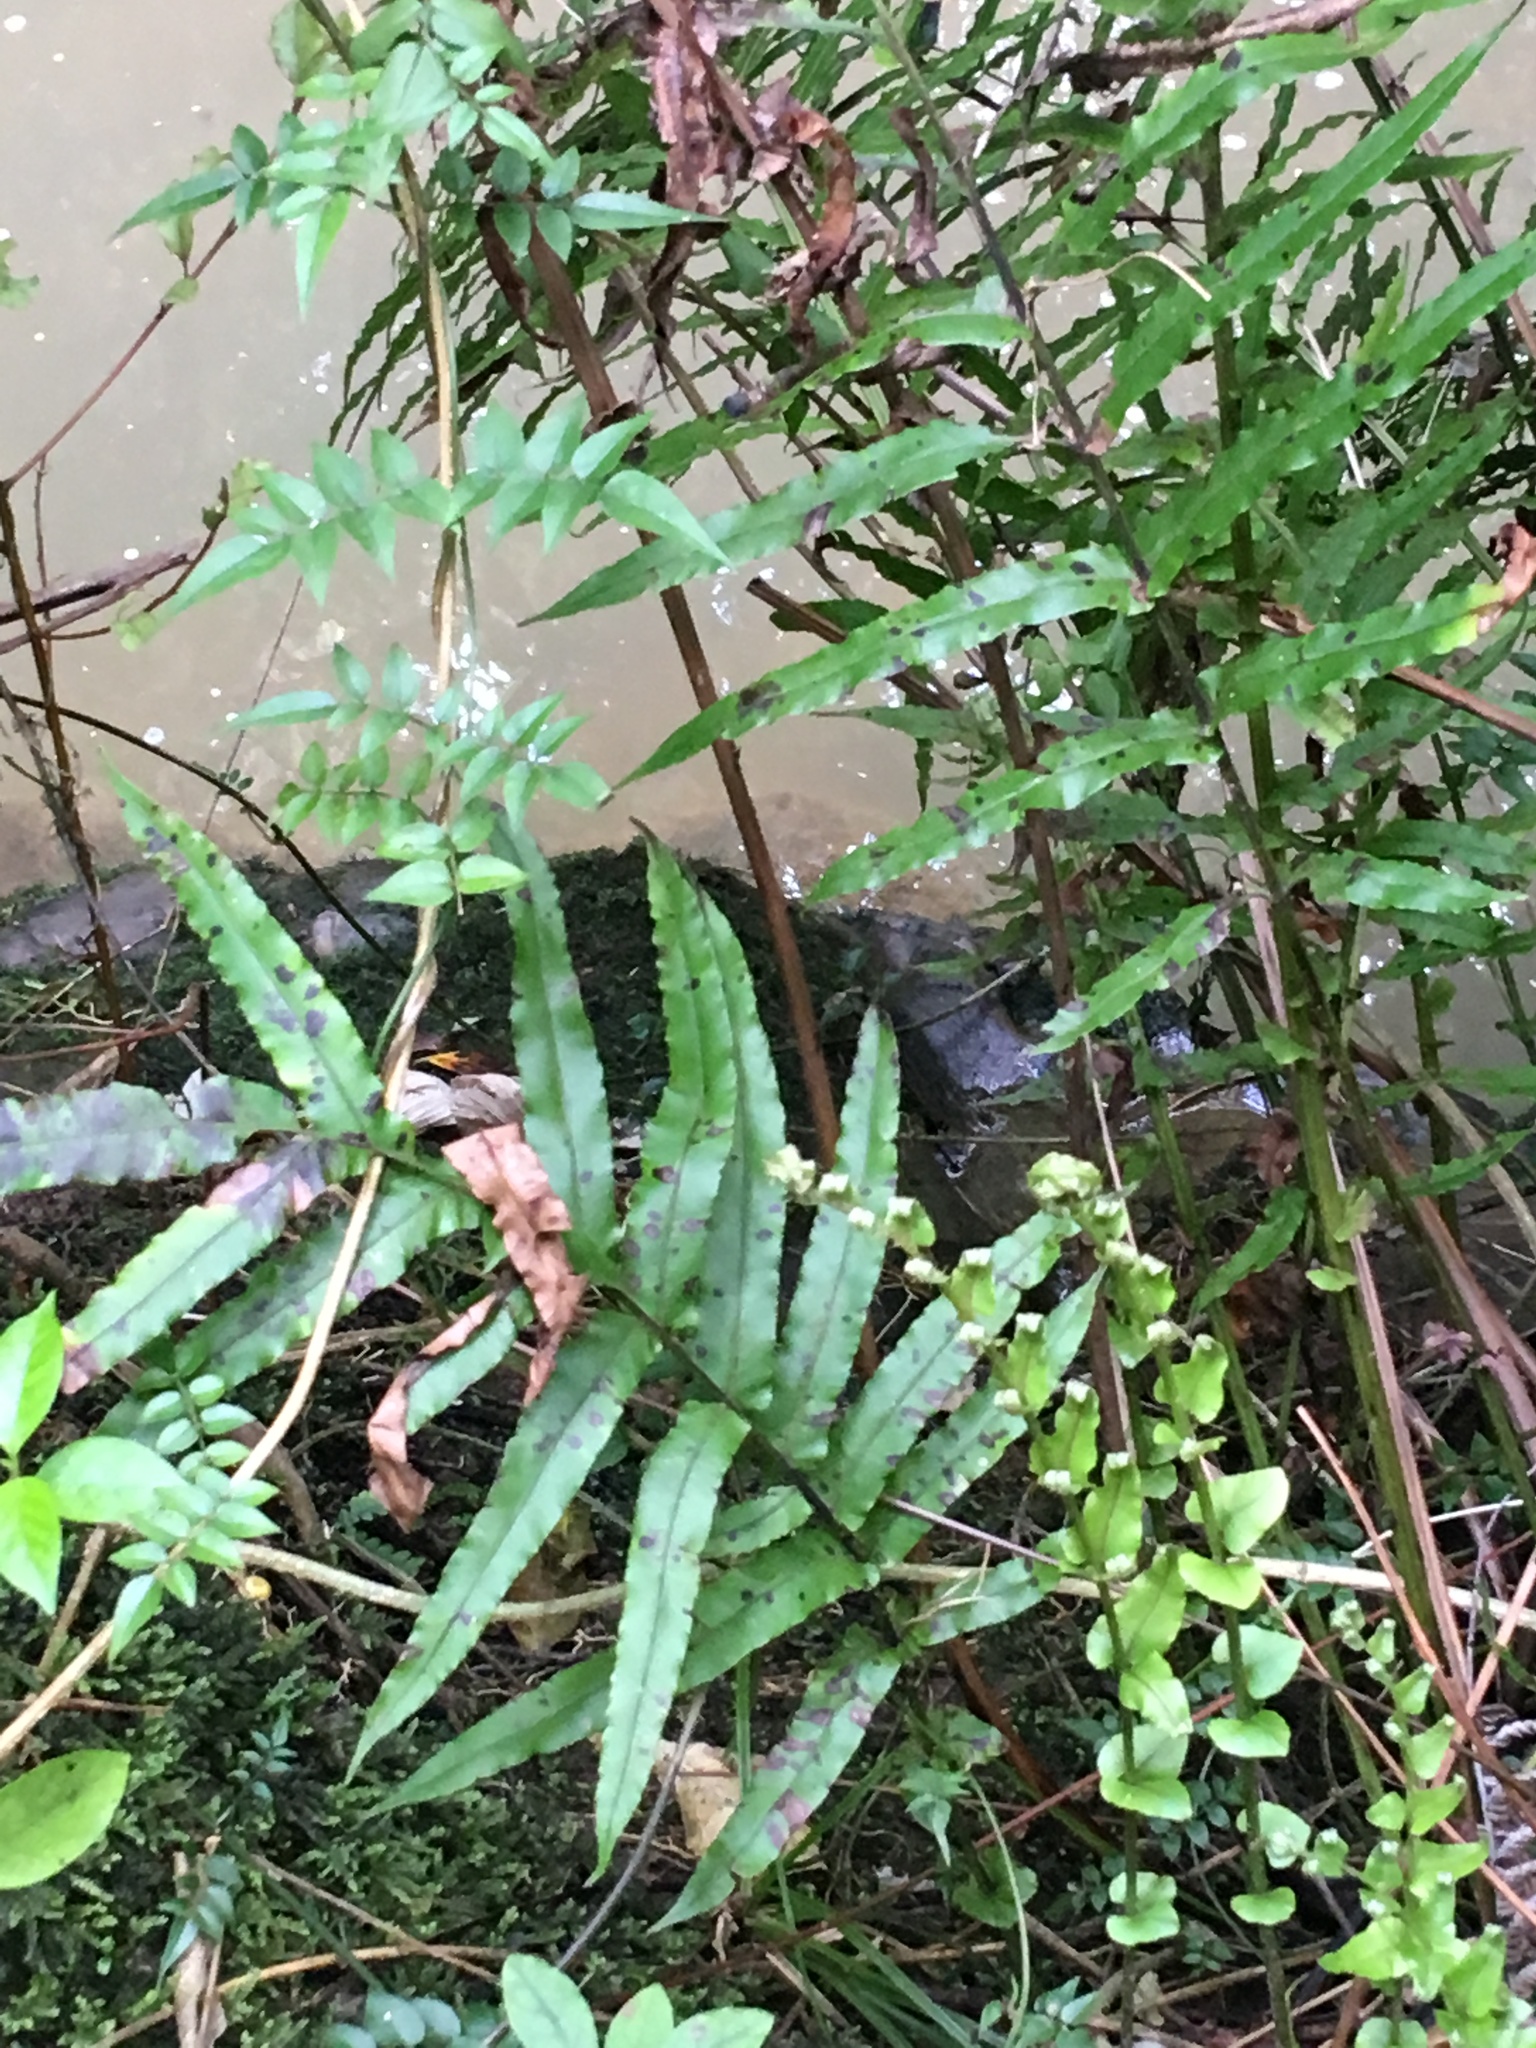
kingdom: Plantae
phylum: Tracheophyta
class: Polypodiopsida
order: Polypodiales
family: Blechnaceae
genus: Parablechnum
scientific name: Parablechnum novae-zelandiae
